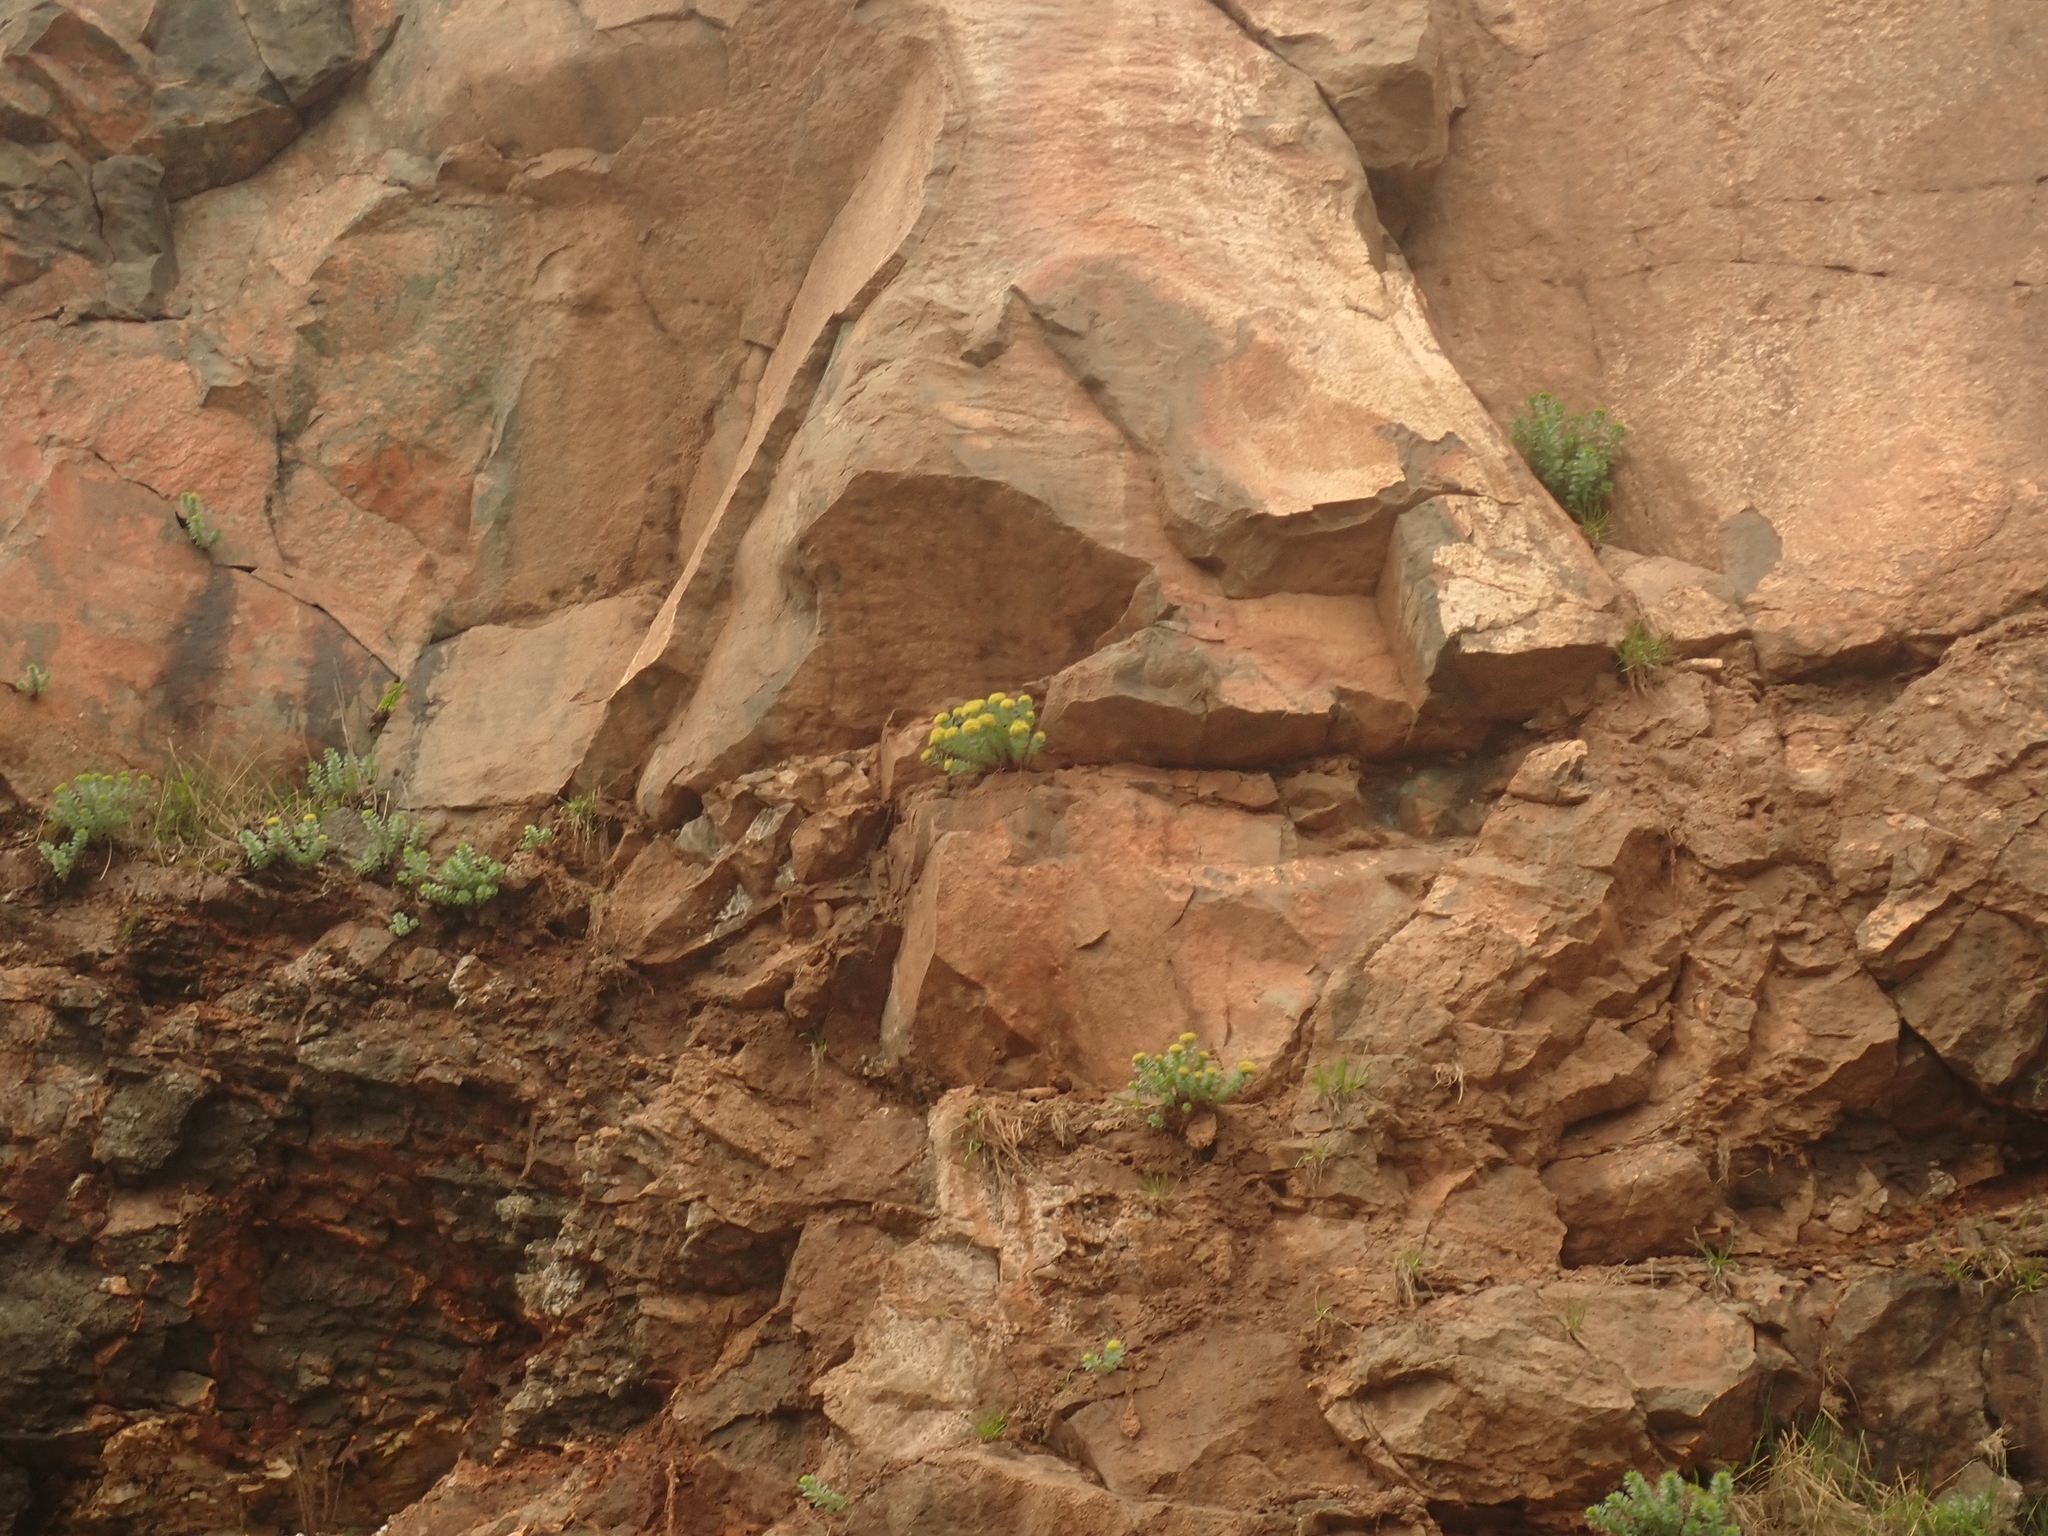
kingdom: Plantae
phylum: Tracheophyta
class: Magnoliopsida
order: Saxifragales
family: Crassulaceae
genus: Rhodiola
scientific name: Rhodiola rosea
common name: Roseroot
